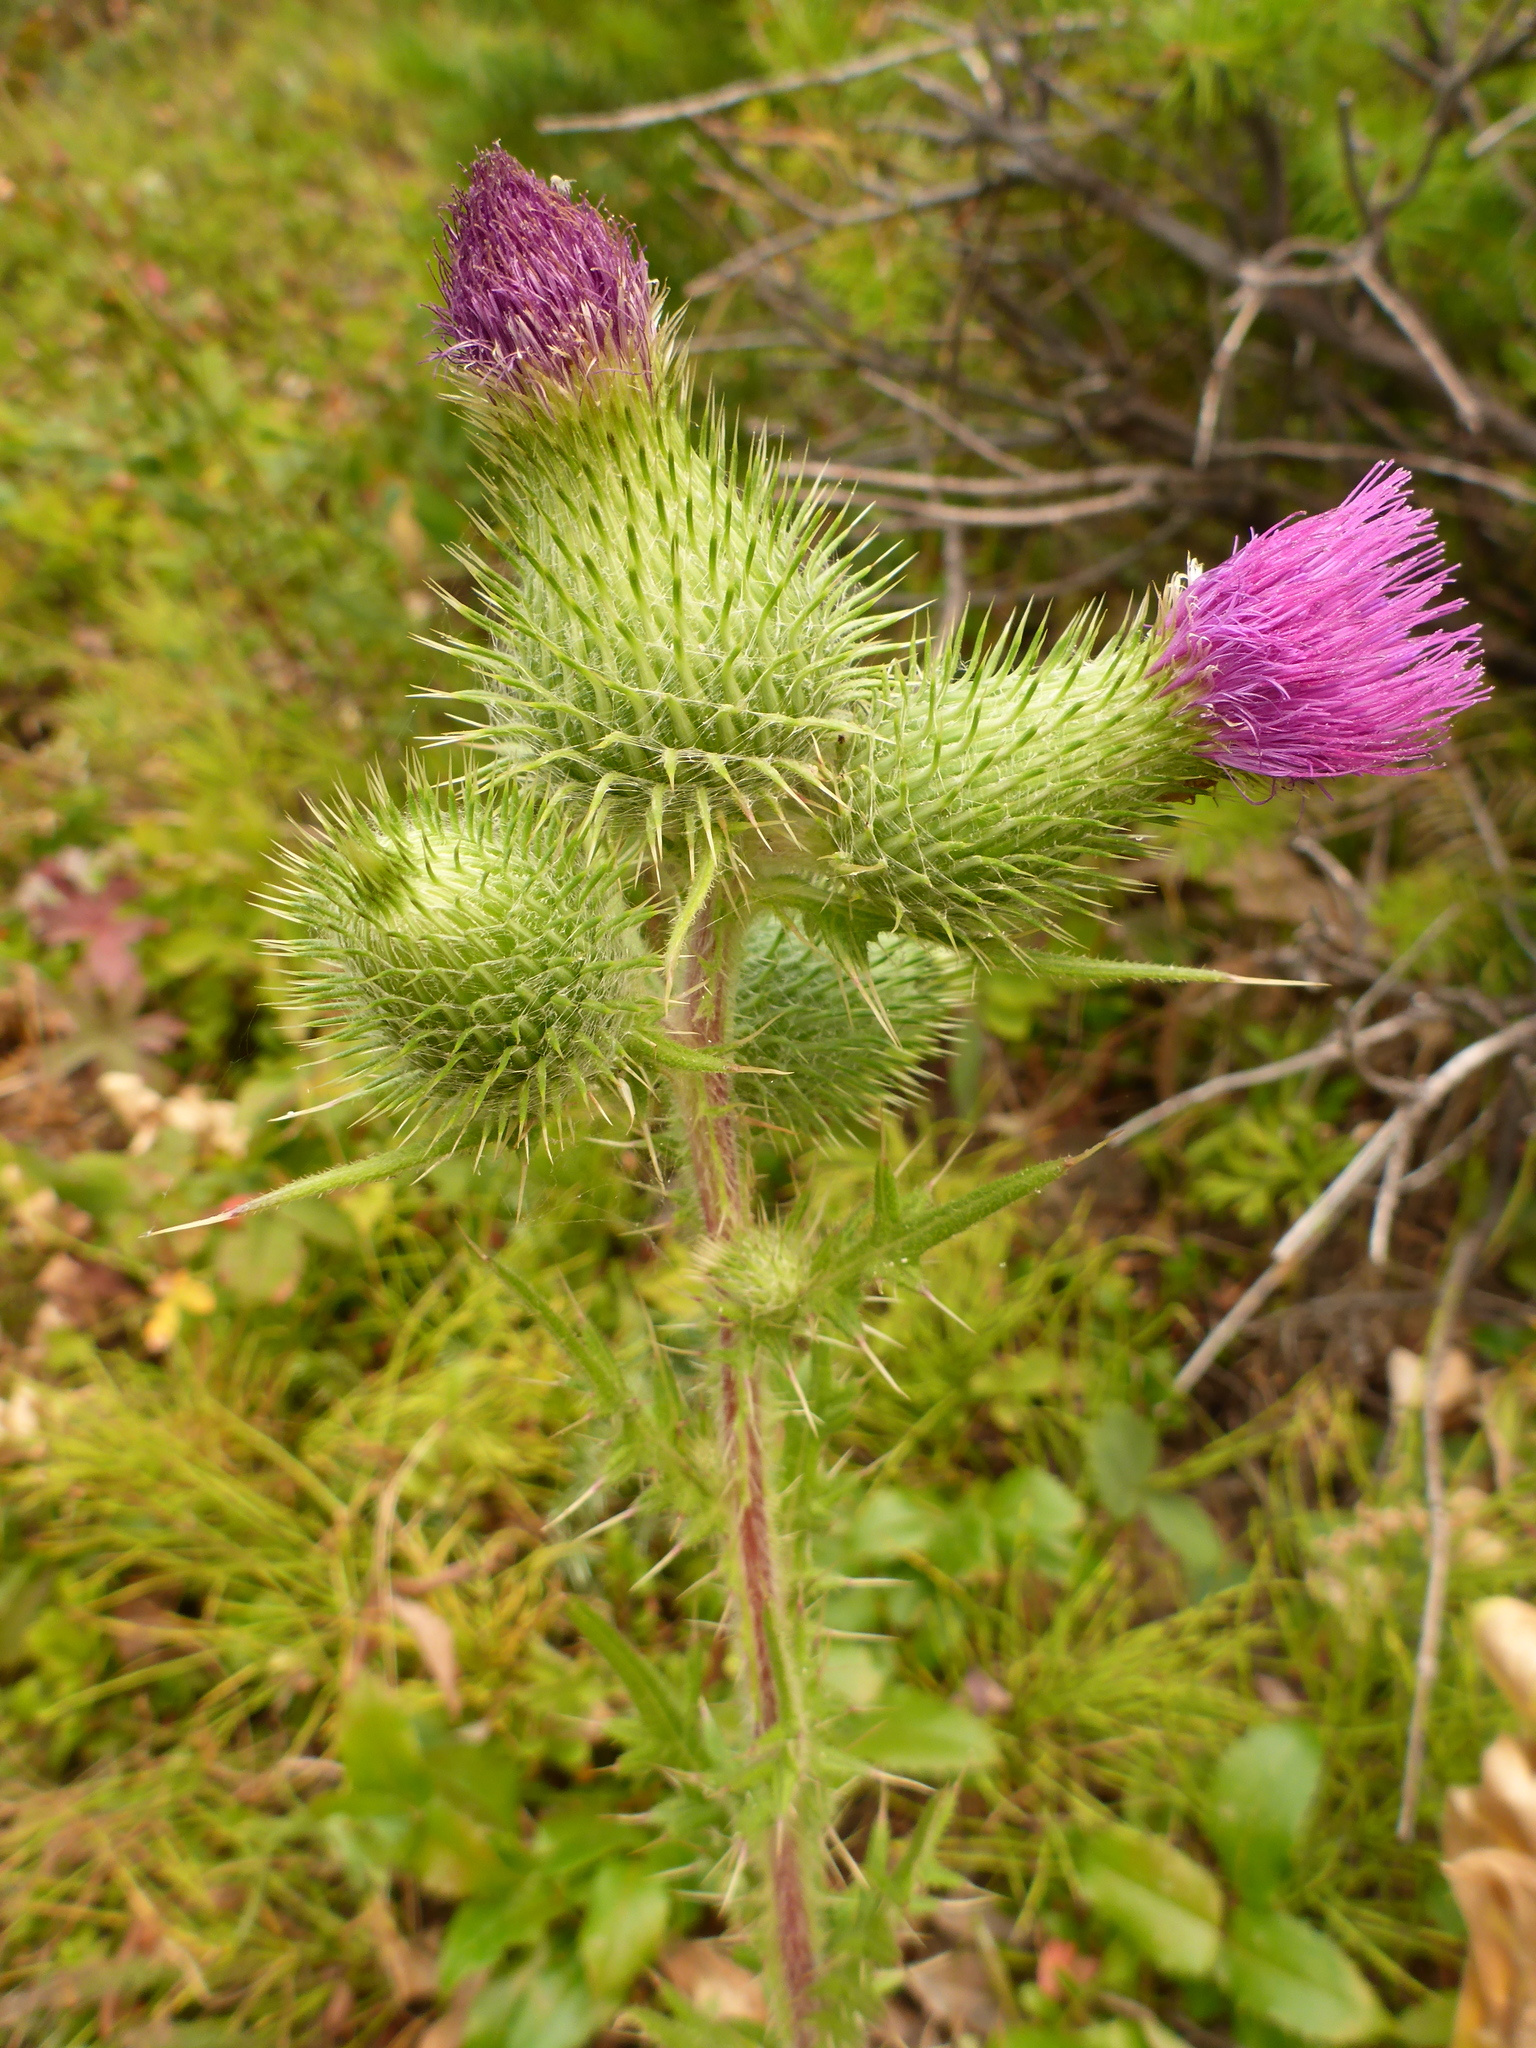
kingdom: Plantae
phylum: Tracheophyta
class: Magnoliopsida
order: Asterales
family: Asteraceae
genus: Cirsium
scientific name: Cirsium vulgare
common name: Bull thistle
